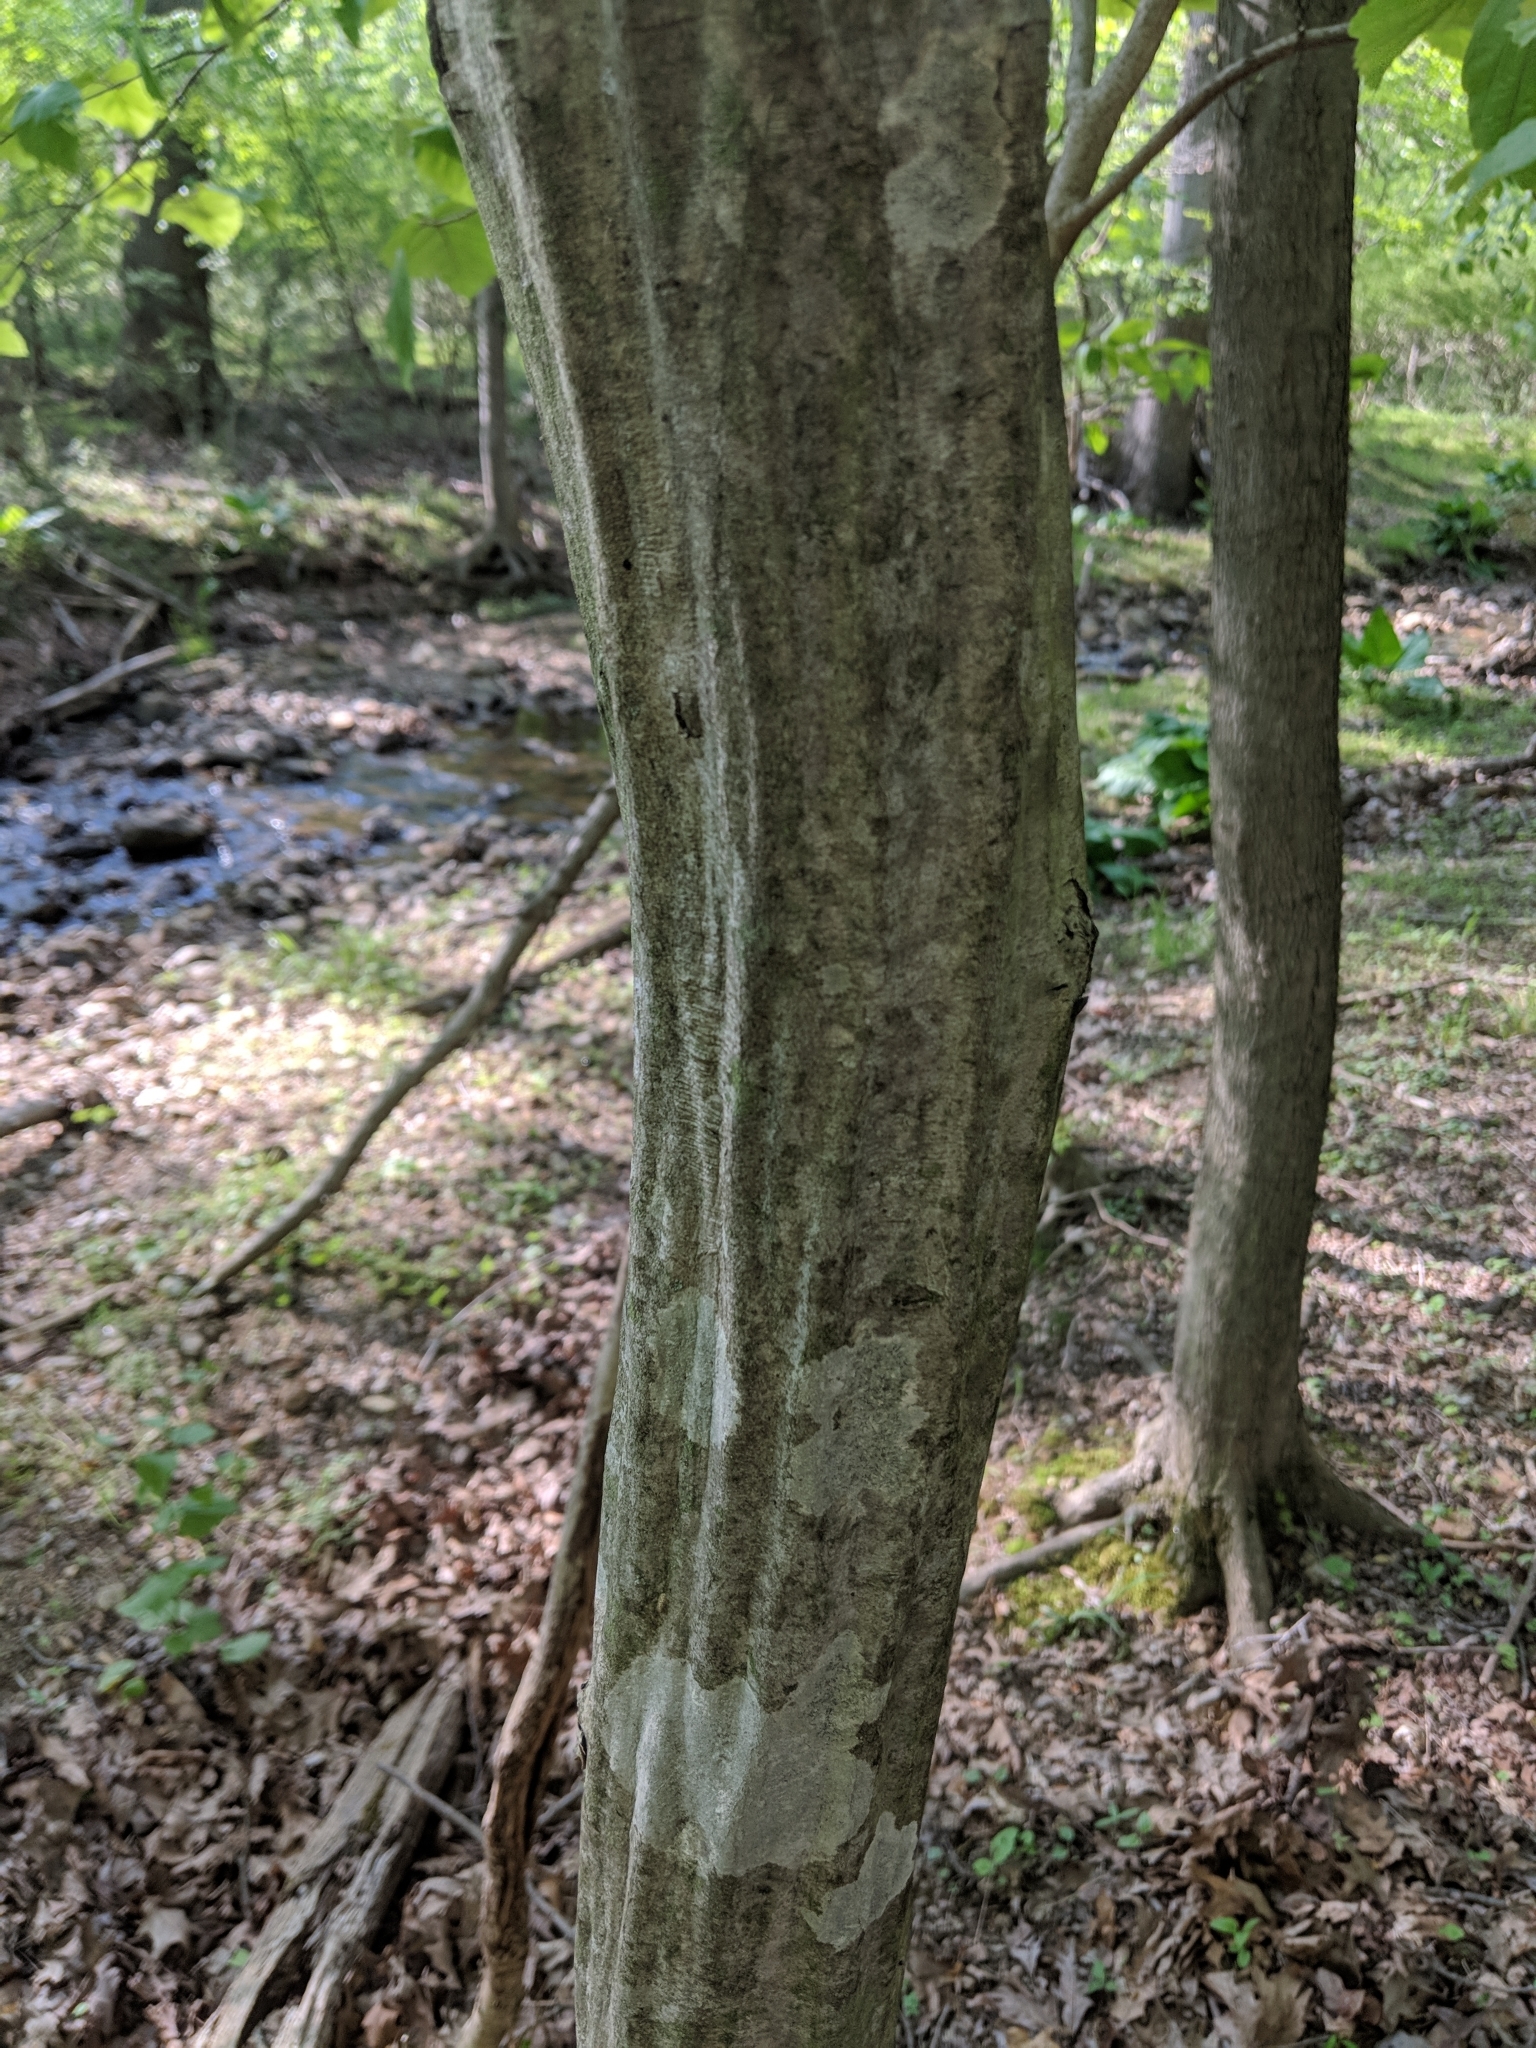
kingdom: Plantae
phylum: Tracheophyta
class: Magnoliopsida
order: Fagales
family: Betulaceae
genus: Carpinus
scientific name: Carpinus caroliniana
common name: American hornbeam
